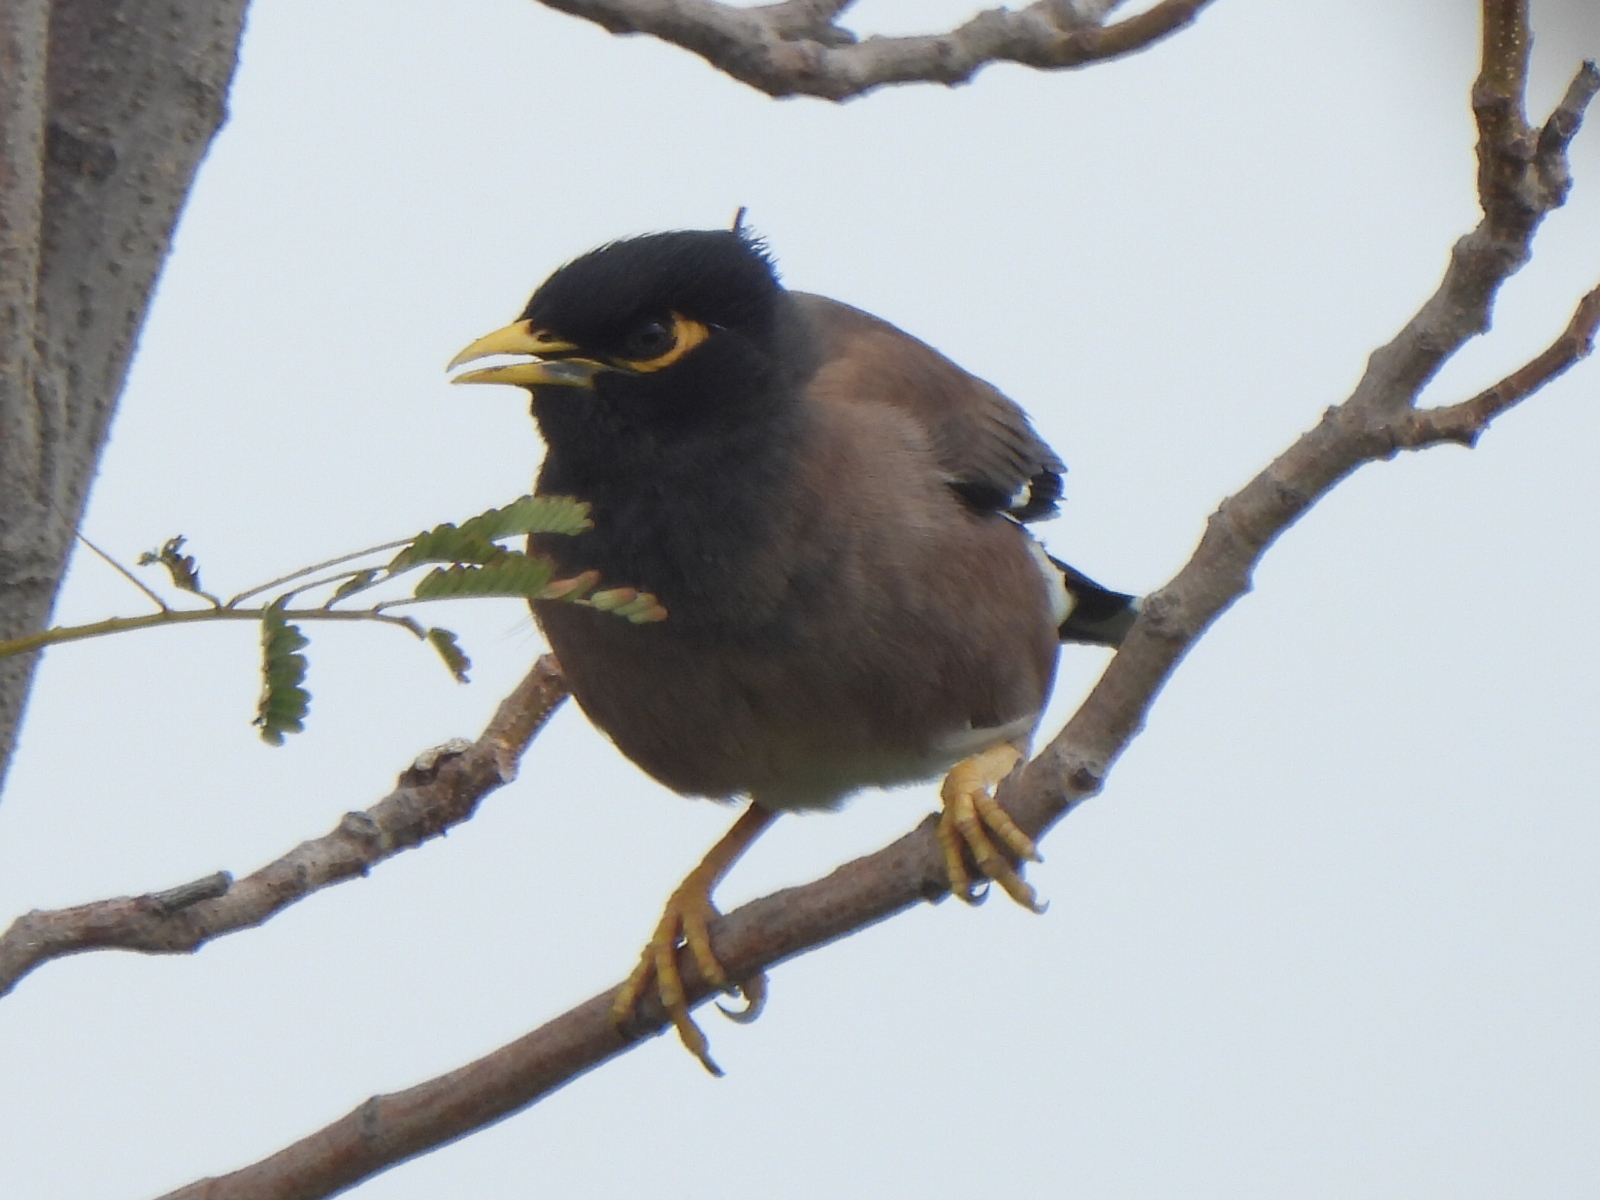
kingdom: Animalia
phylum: Chordata
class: Aves
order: Passeriformes
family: Sturnidae
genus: Acridotheres
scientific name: Acridotheres tristis
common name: Common myna
